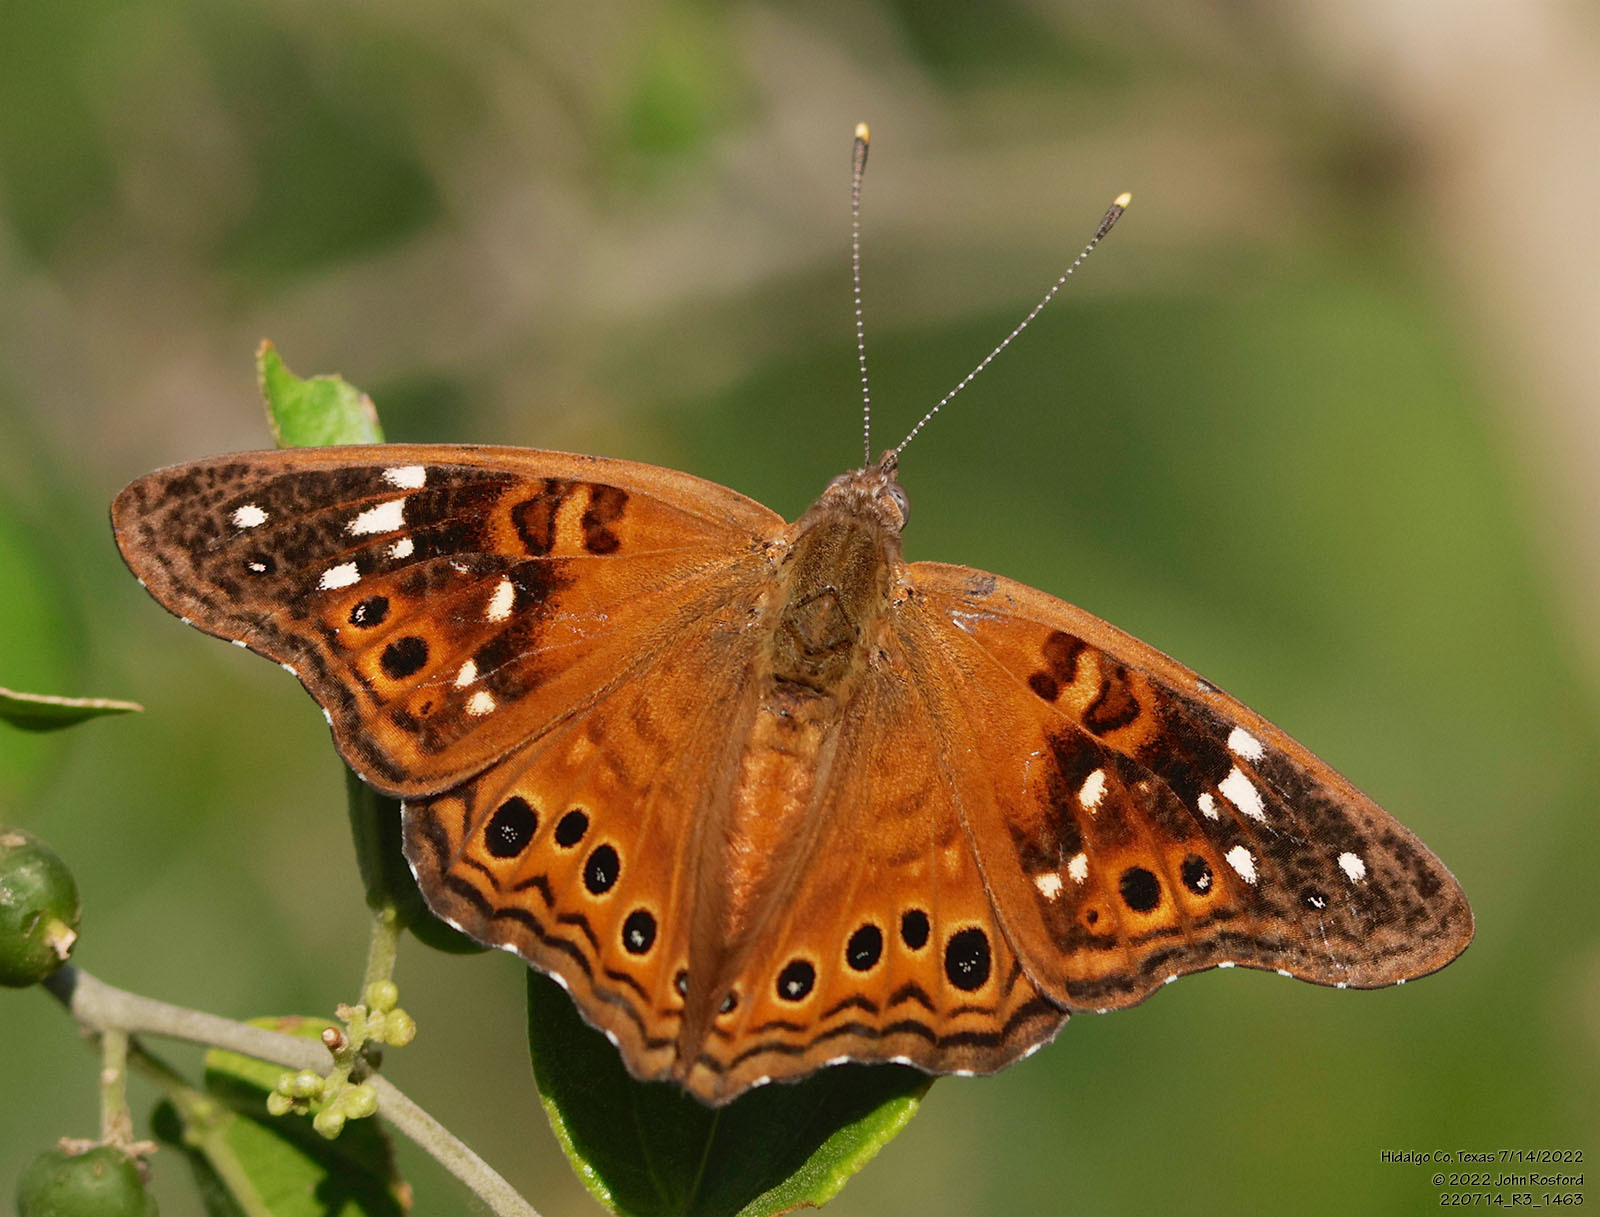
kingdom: Animalia
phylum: Arthropoda
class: Insecta
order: Lepidoptera
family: Nymphalidae
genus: Asterocampa
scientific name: Asterocampa leilia
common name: Empress leilia
